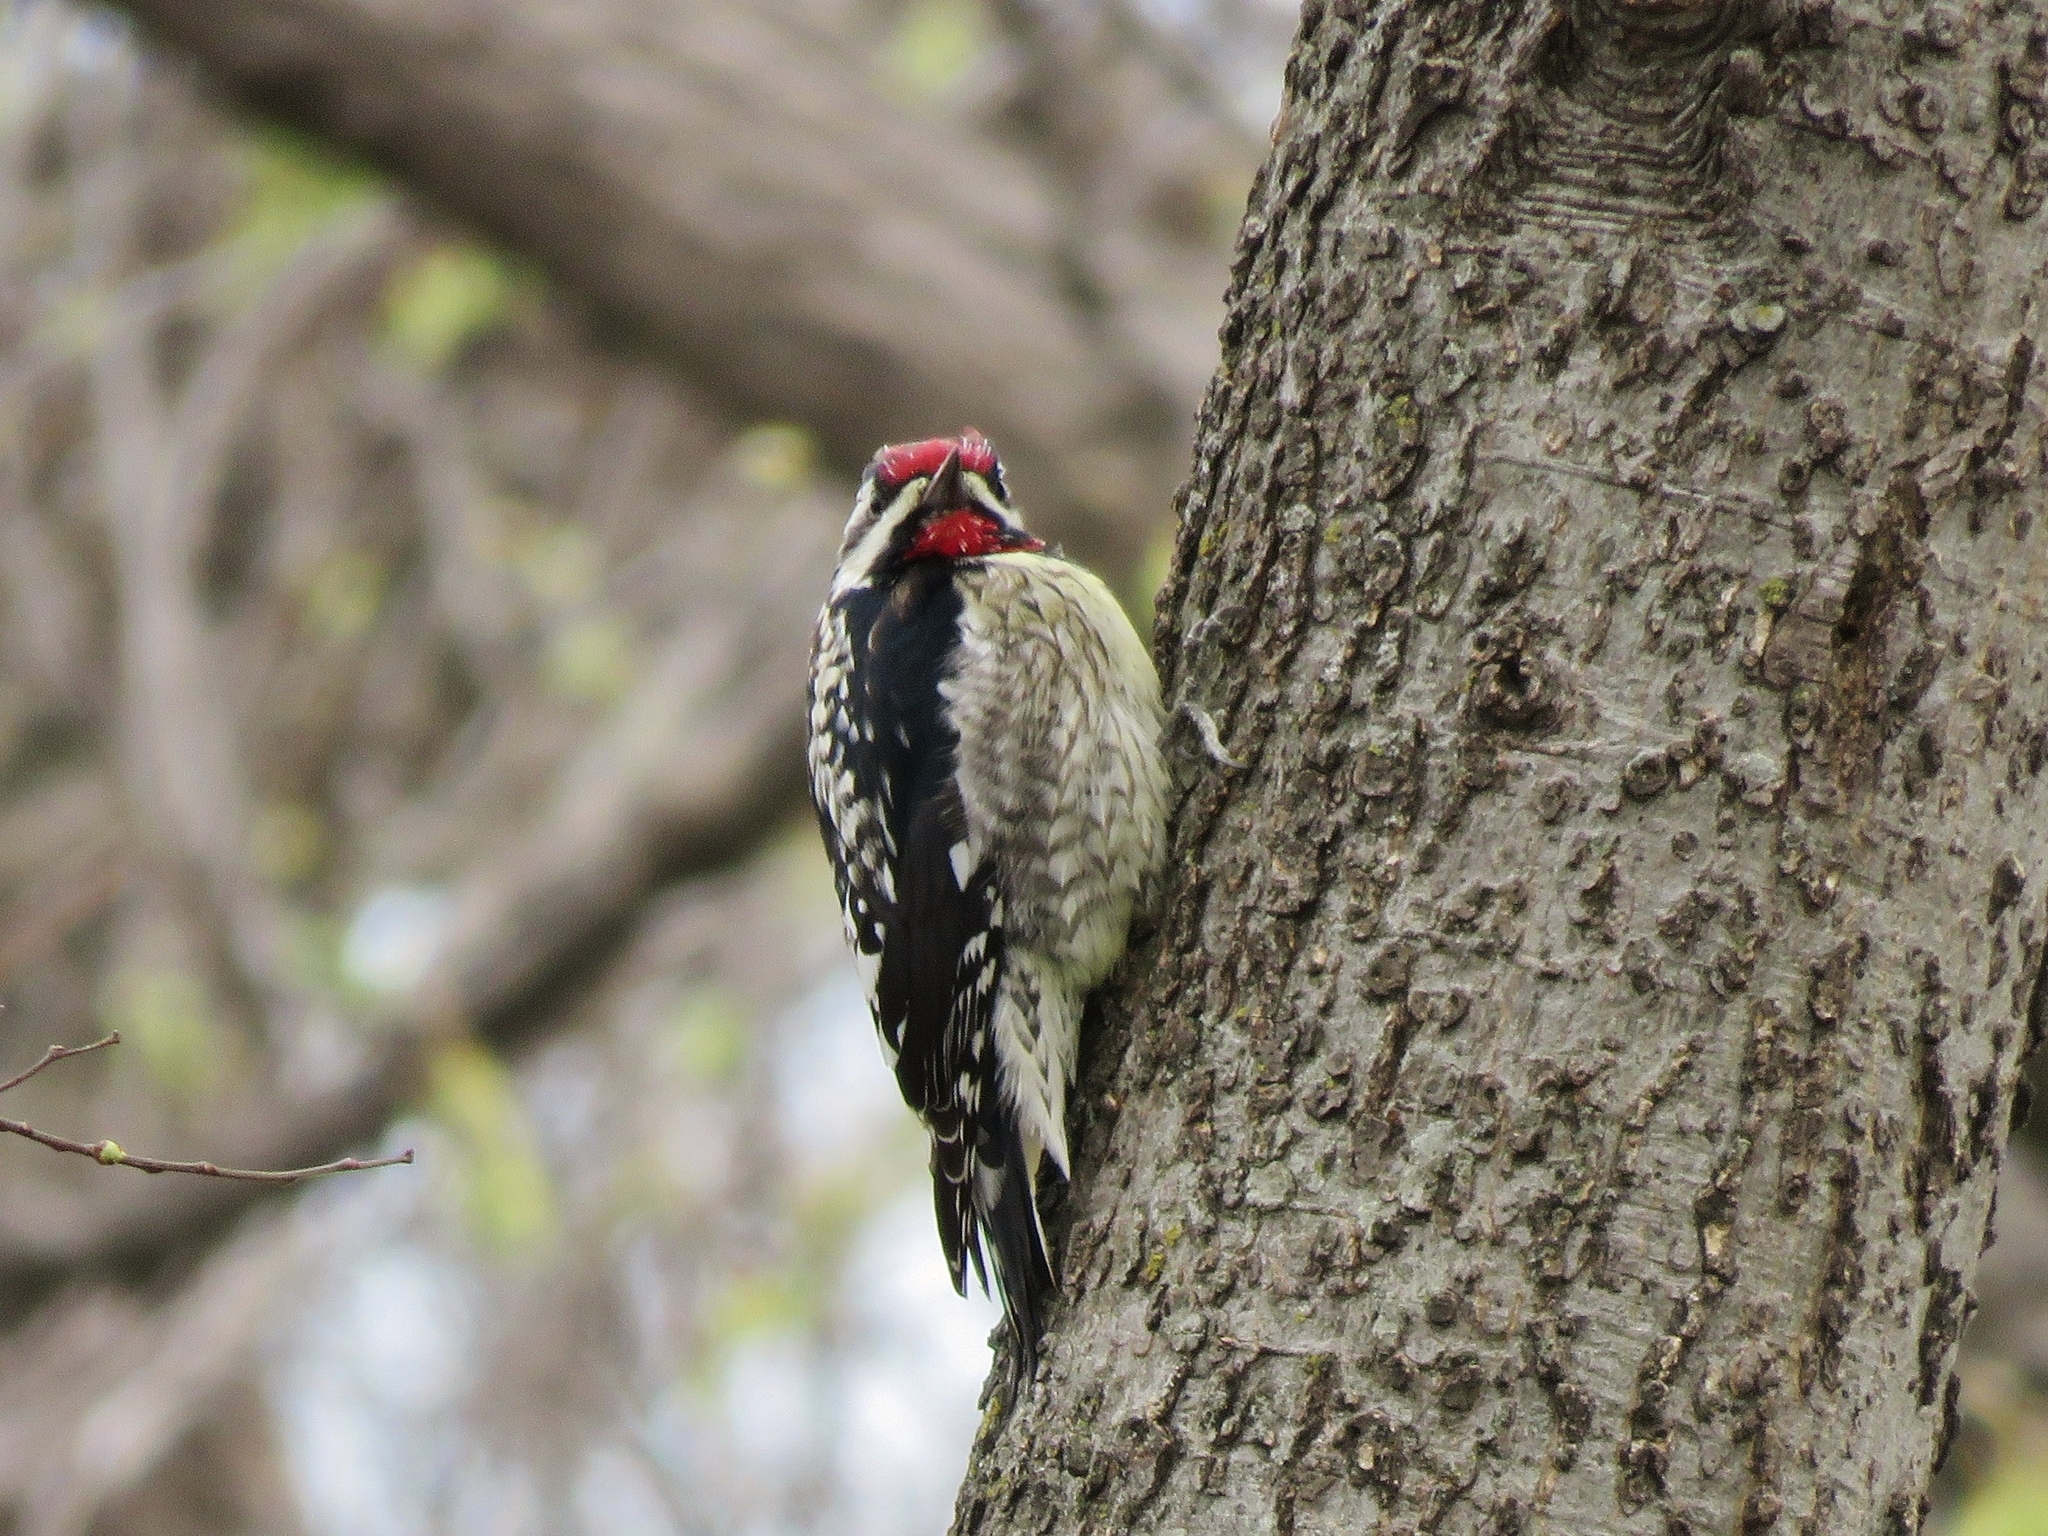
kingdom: Animalia
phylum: Chordata
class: Aves
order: Piciformes
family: Picidae
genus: Sphyrapicus
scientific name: Sphyrapicus varius
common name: Yellow-bellied sapsucker
